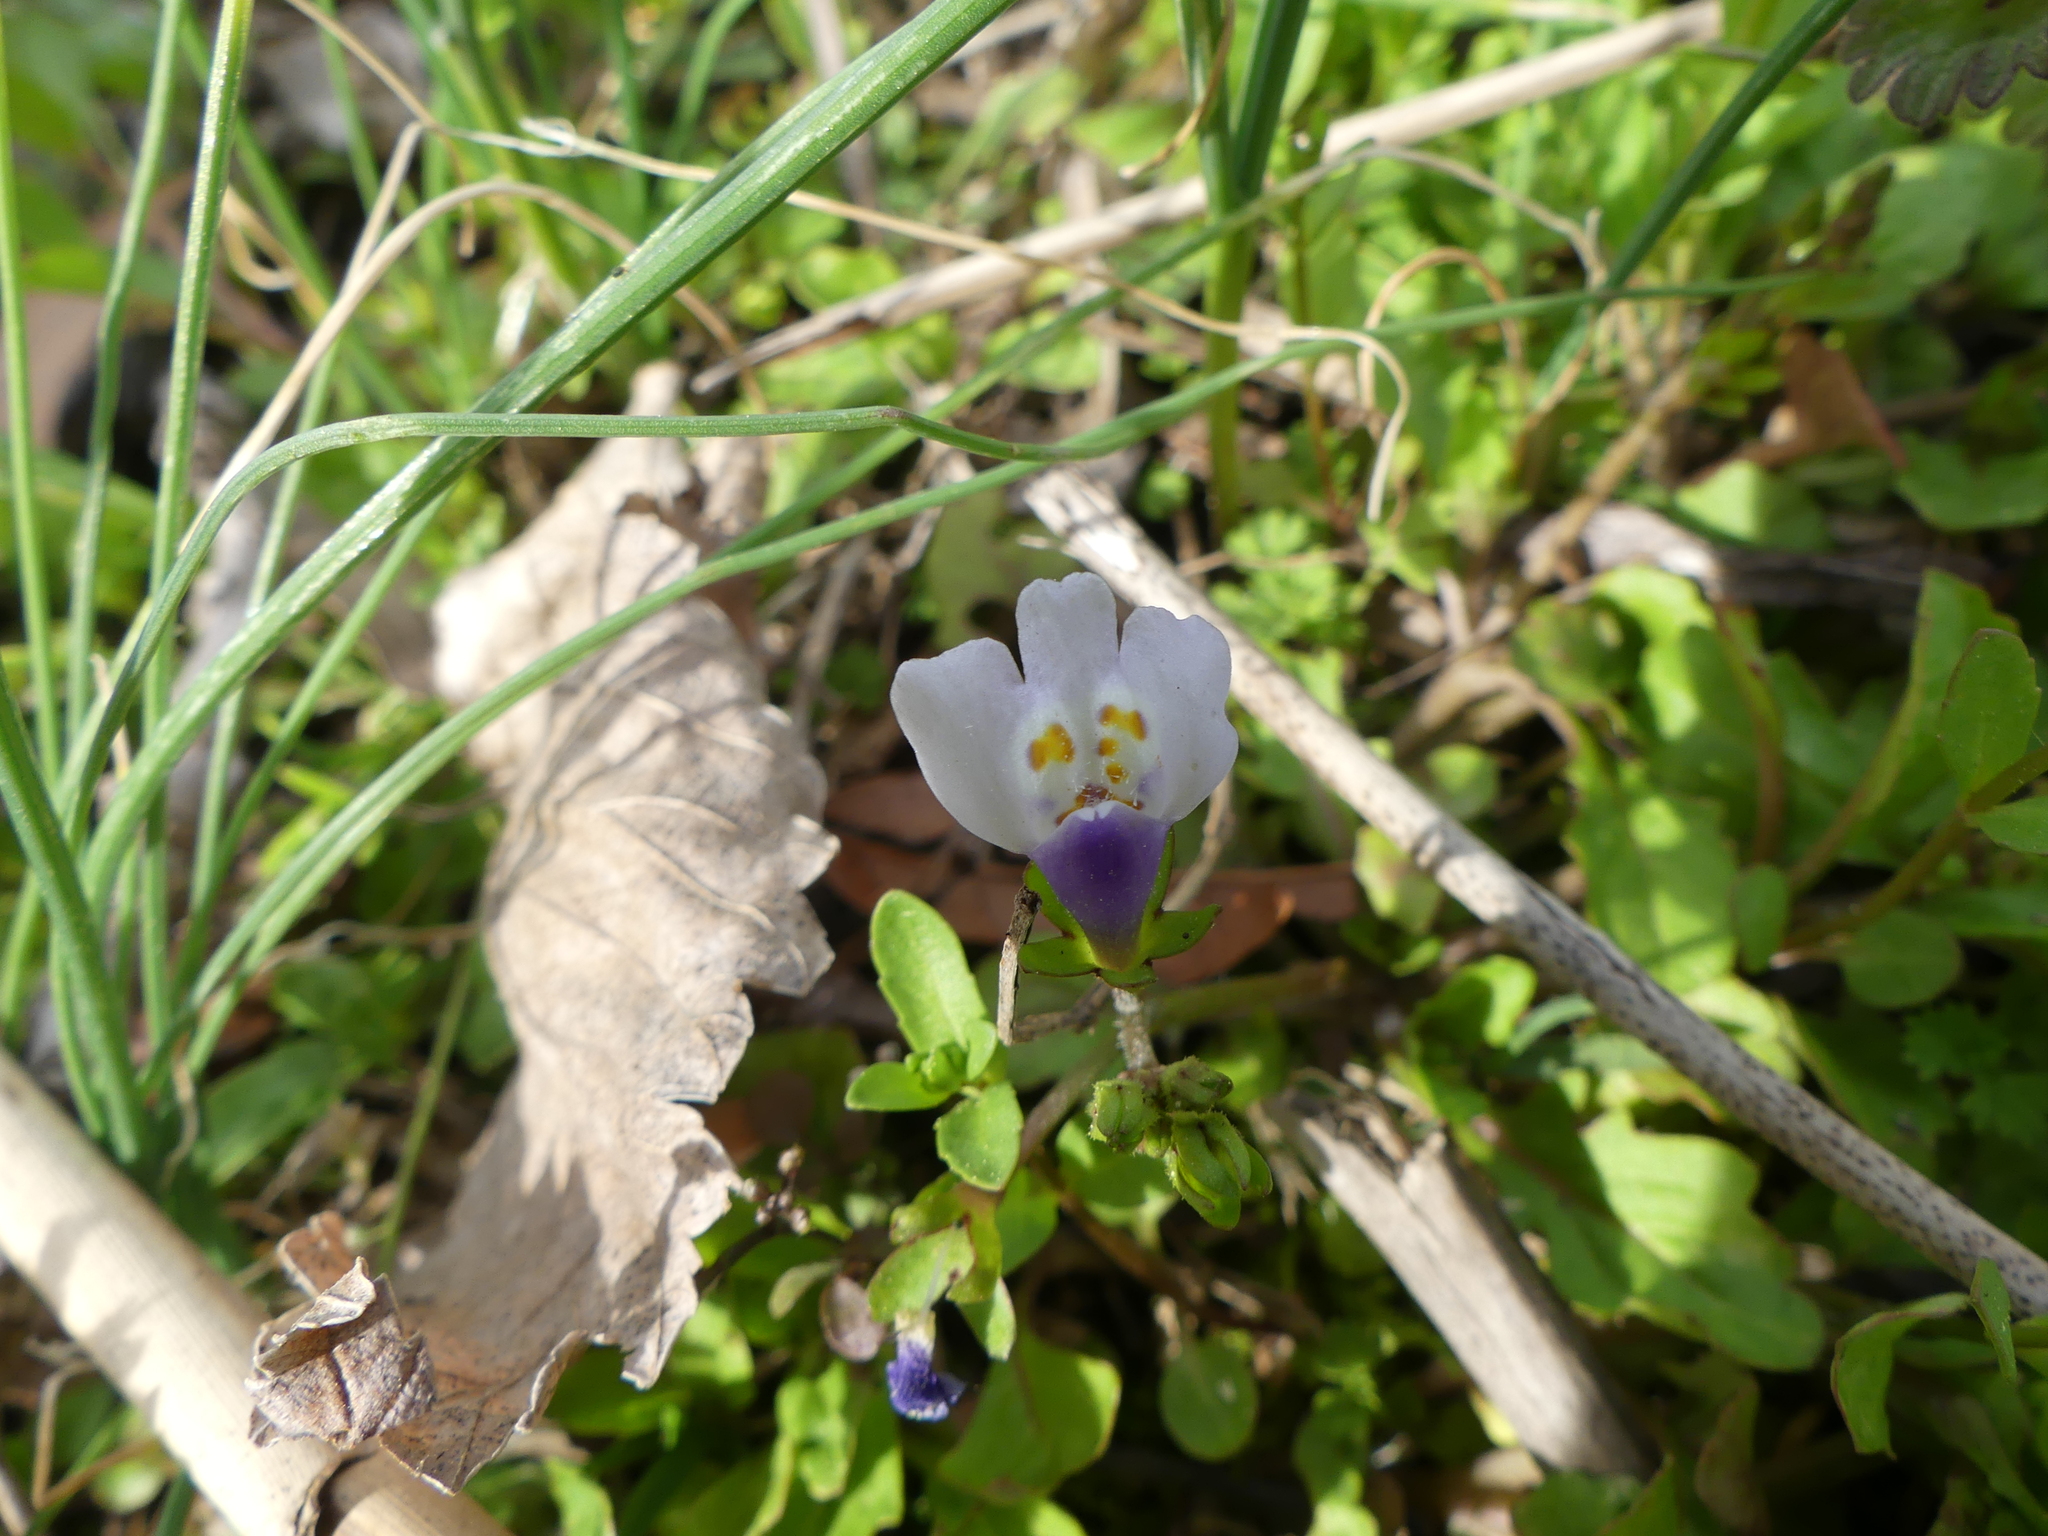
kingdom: Plantae
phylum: Tracheophyta
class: Magnoliopsida
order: Lamiales
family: Mazaceae
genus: Mazus
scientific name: Mazus pumilus
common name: Japanese mazus
